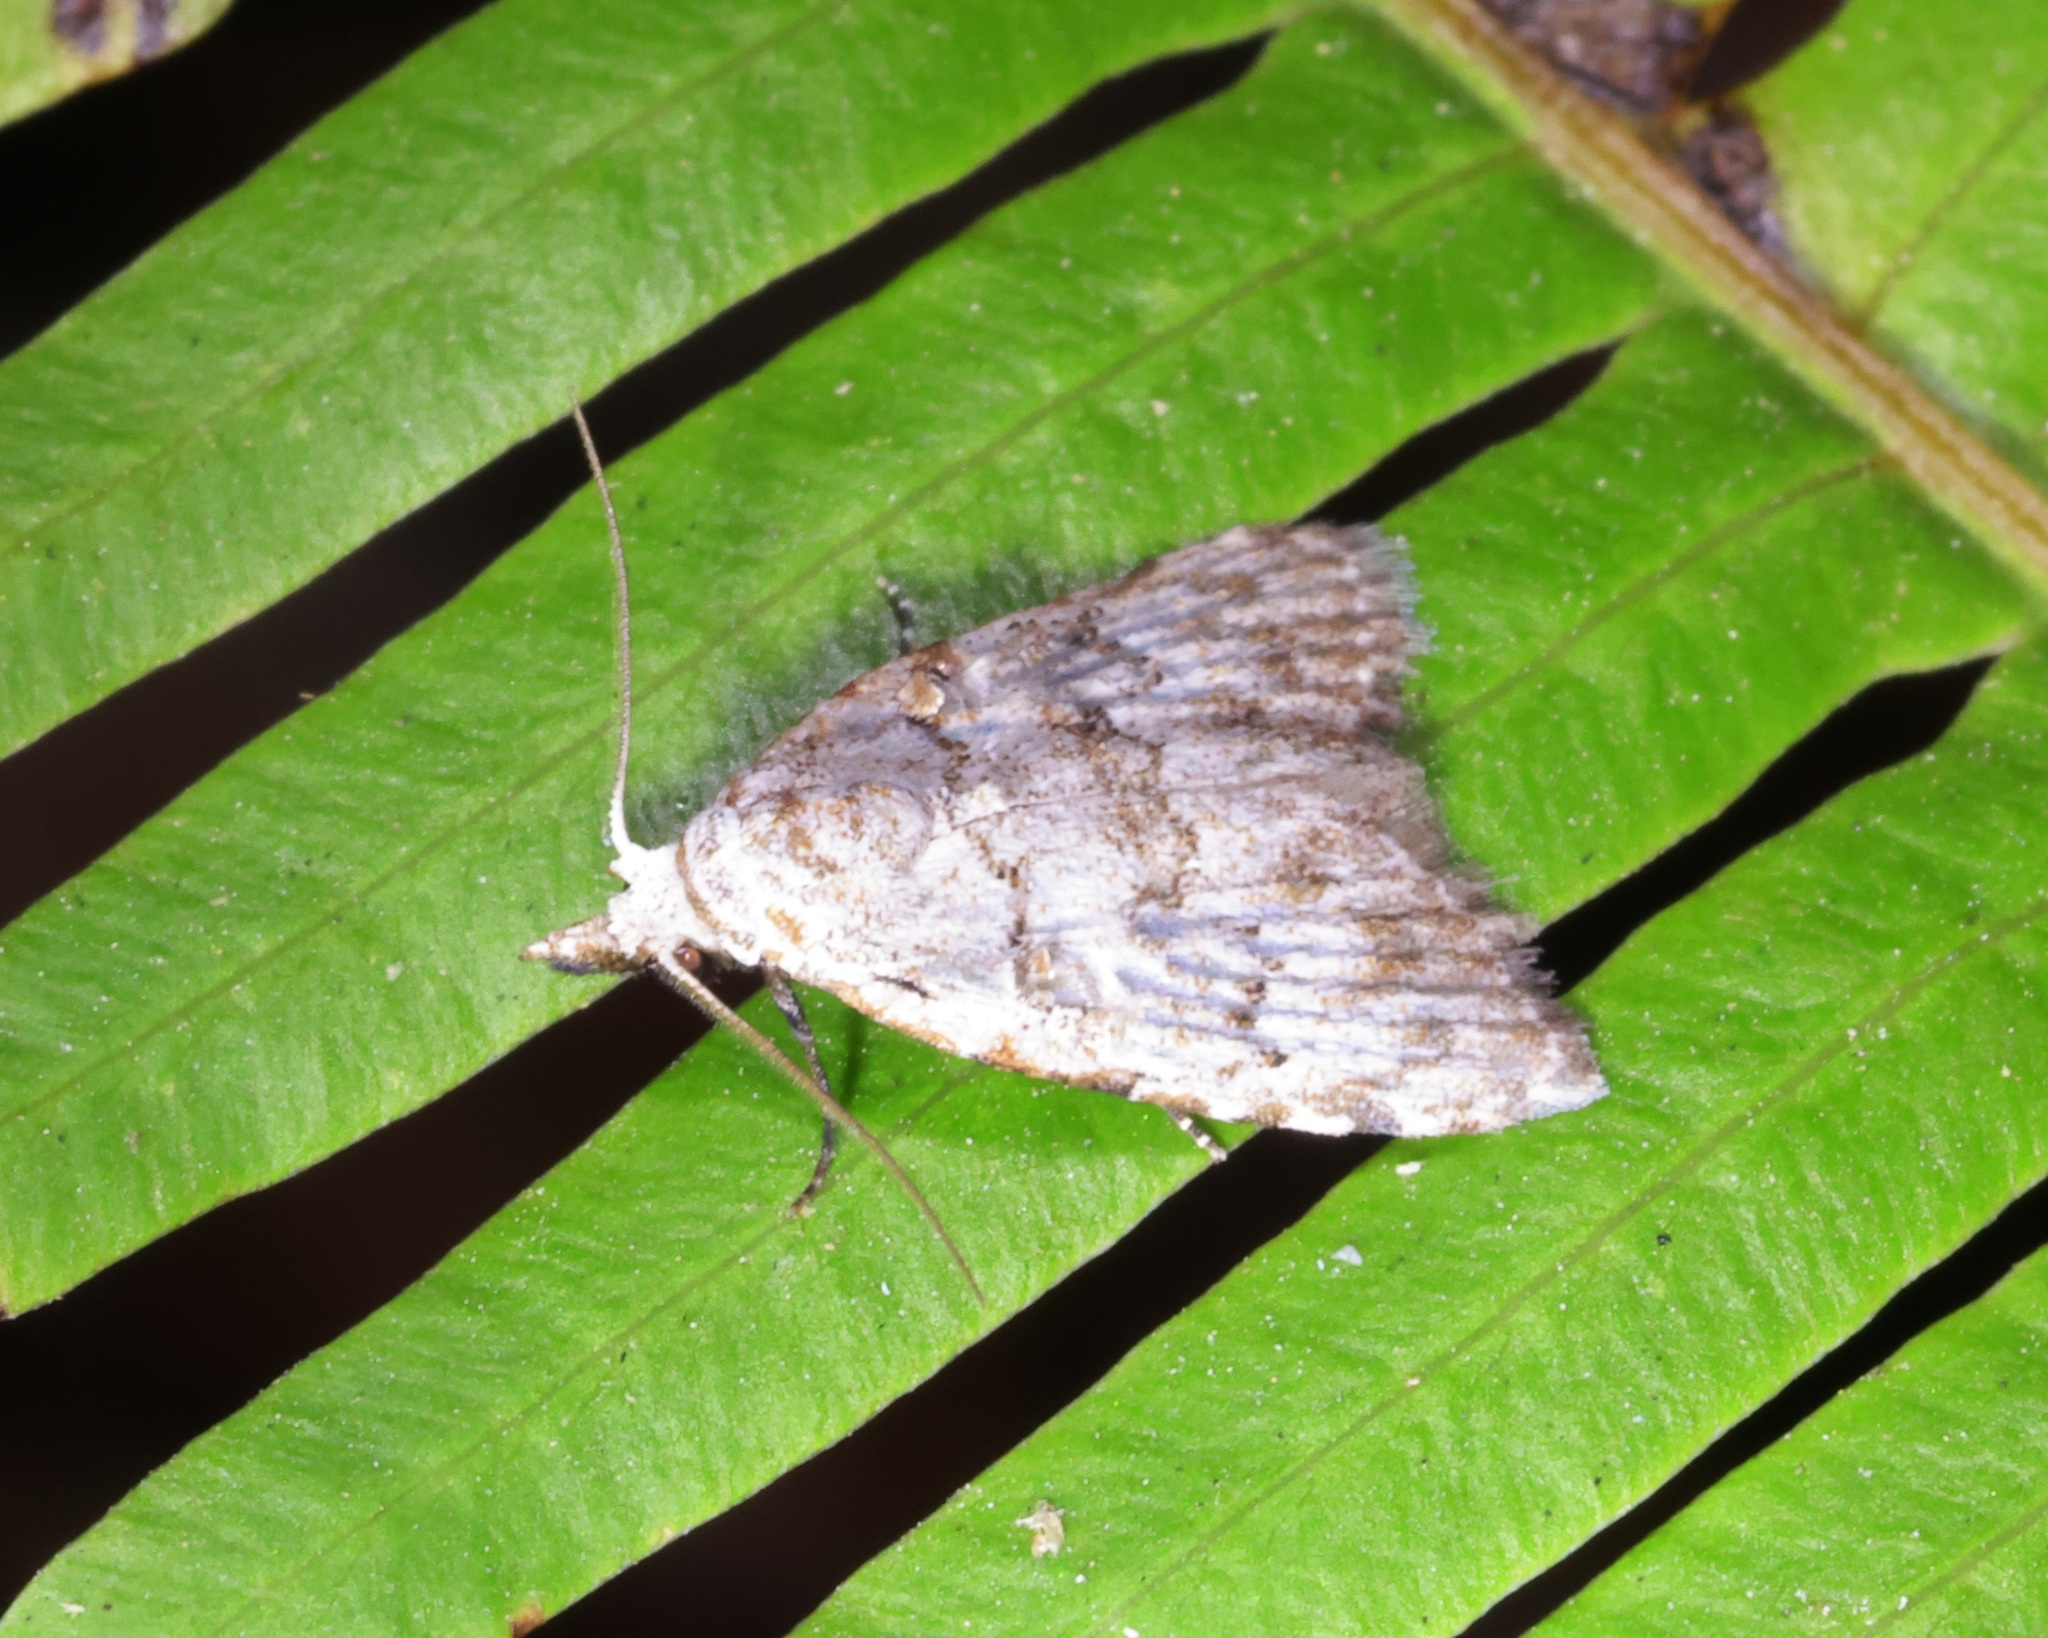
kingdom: Animalia
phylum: Arthropoda
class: Insecta
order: Lepidoptera
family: Nolidae
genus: Nola
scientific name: Nola thyrophora
